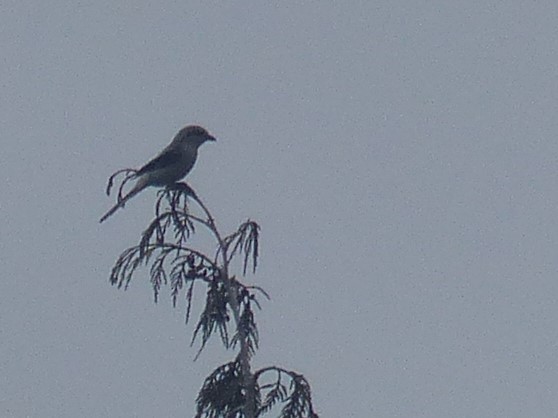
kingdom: Animalia
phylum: Chordata
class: Aves
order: Passeriformes
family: Laniidae
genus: Lanius
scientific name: Lanius borealis
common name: Northern shrike
